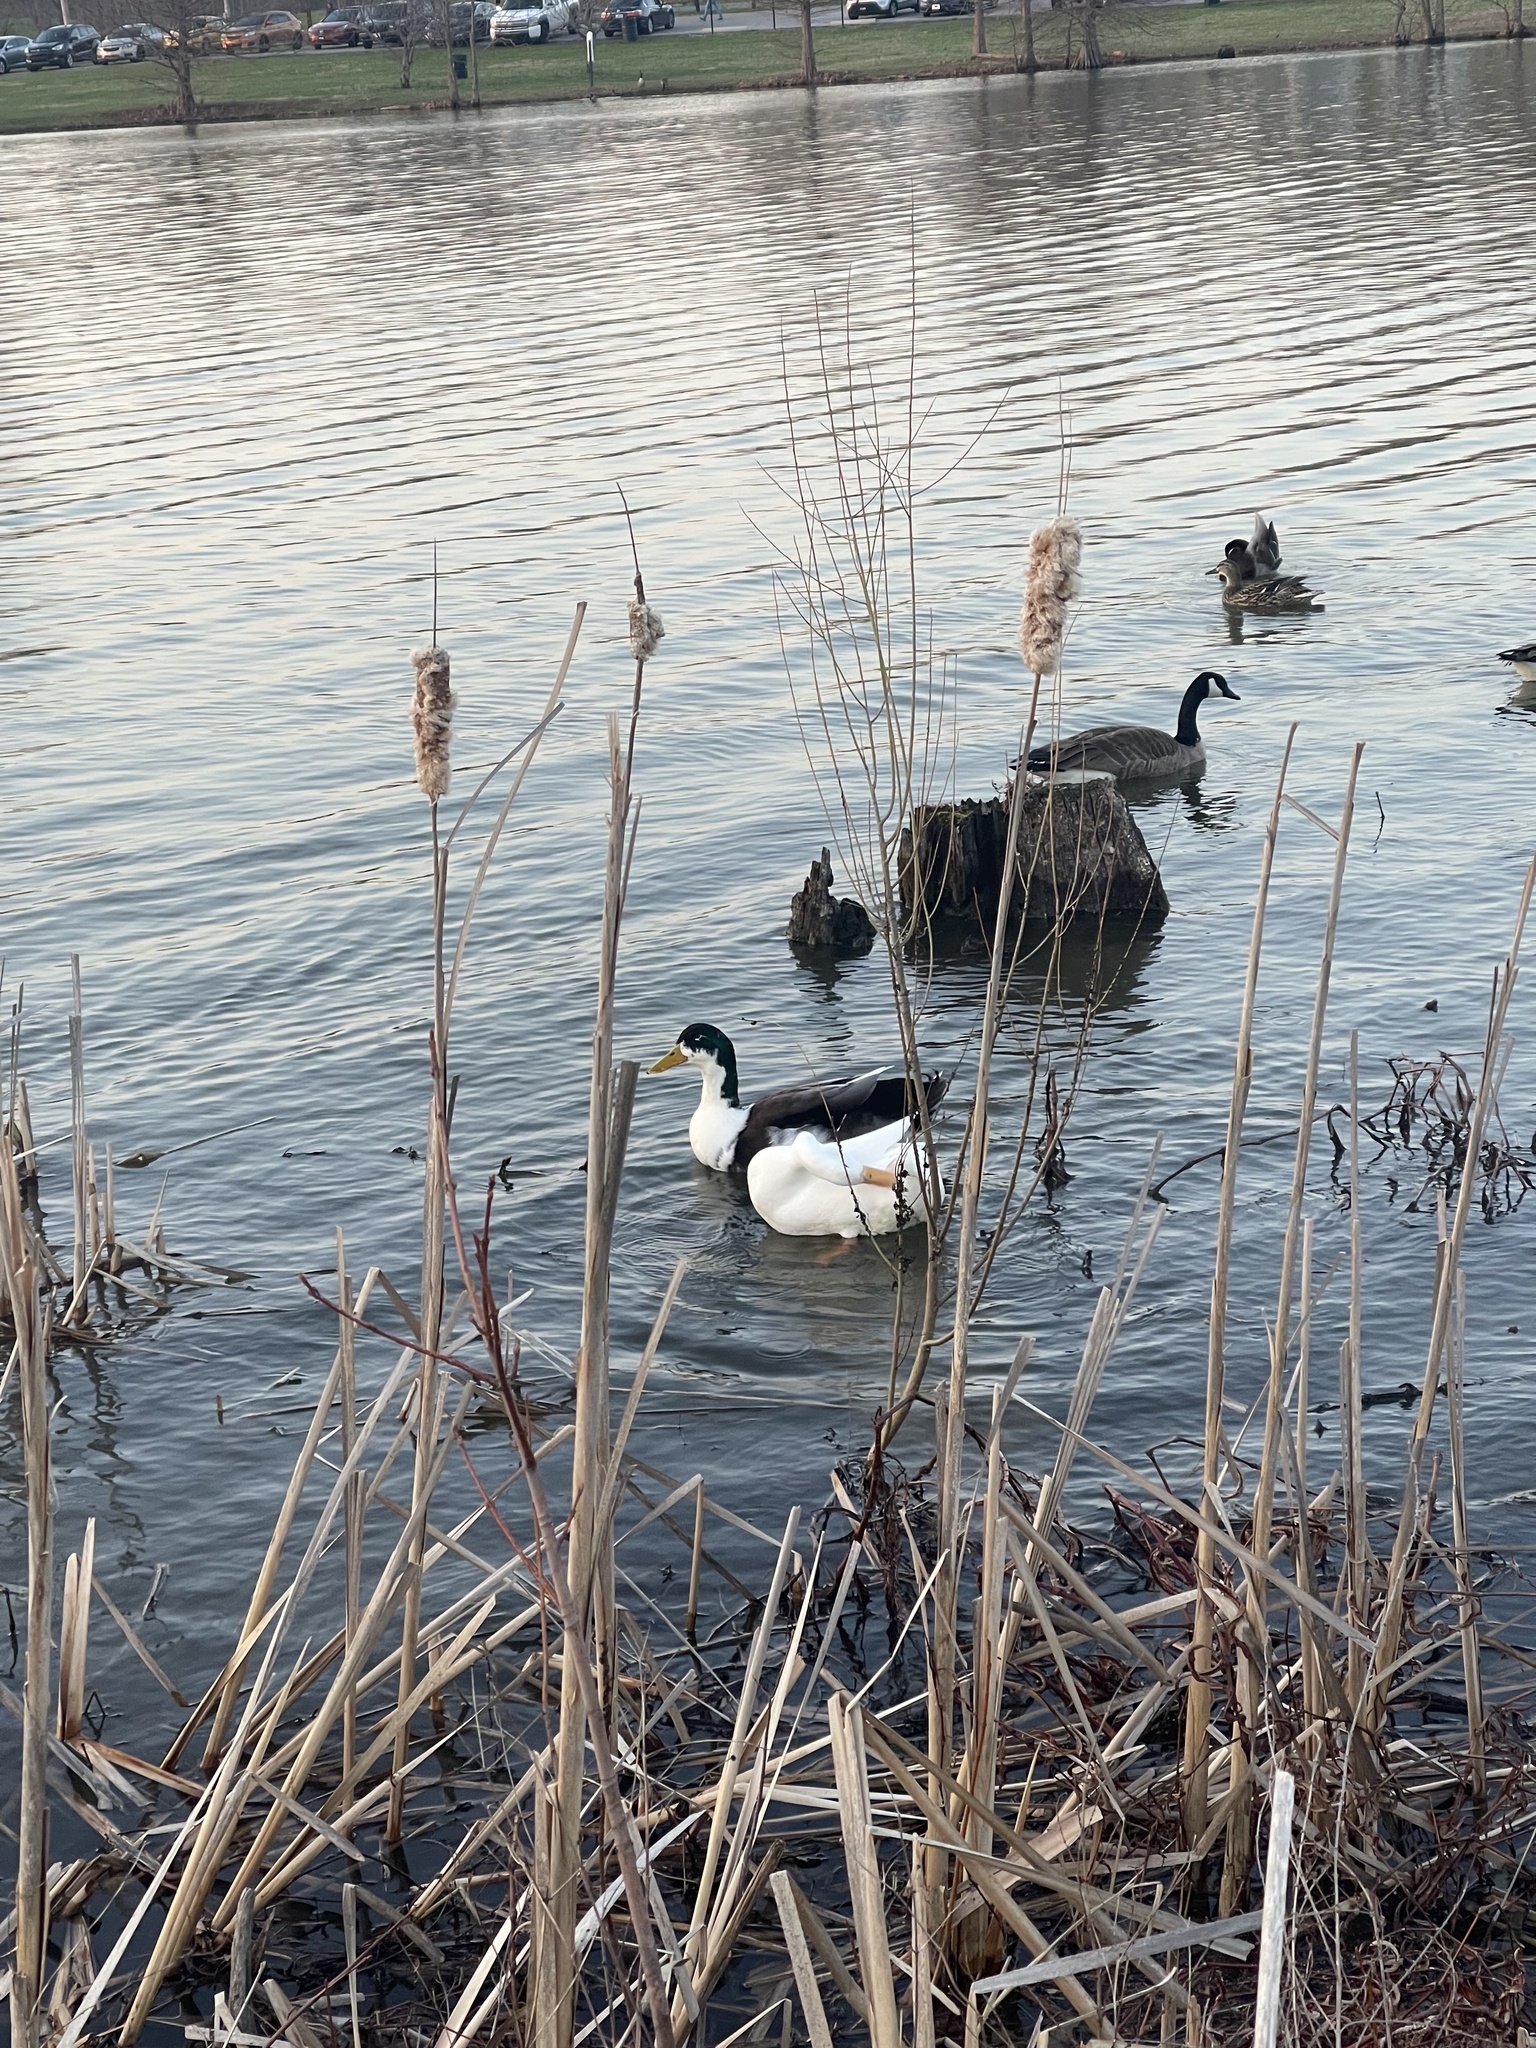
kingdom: Animalia
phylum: Chordata
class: Aves
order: Anseriformes
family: Anatidae
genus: Anas
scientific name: Anas platyrhynchos
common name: Mallard
